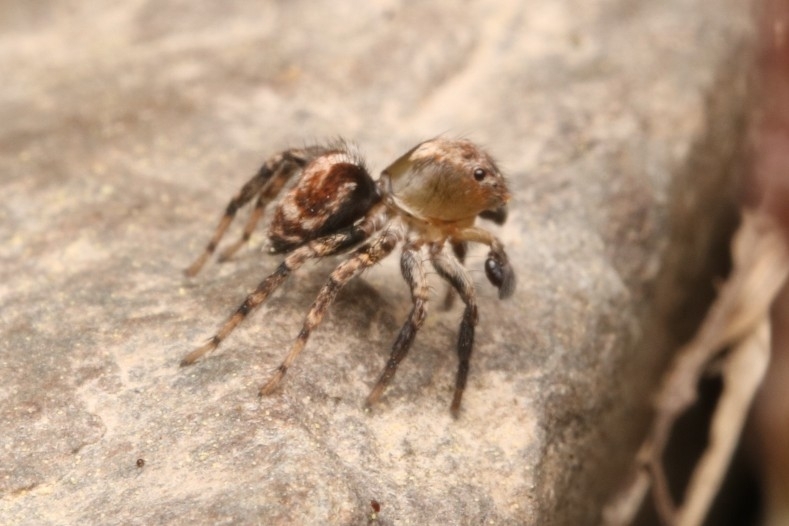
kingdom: Animalia
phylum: Arthropoda
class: Arachnida
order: Araneae
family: Salticidae
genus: Naphrys
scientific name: Naphrys pulex
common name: Flea jumping spider
